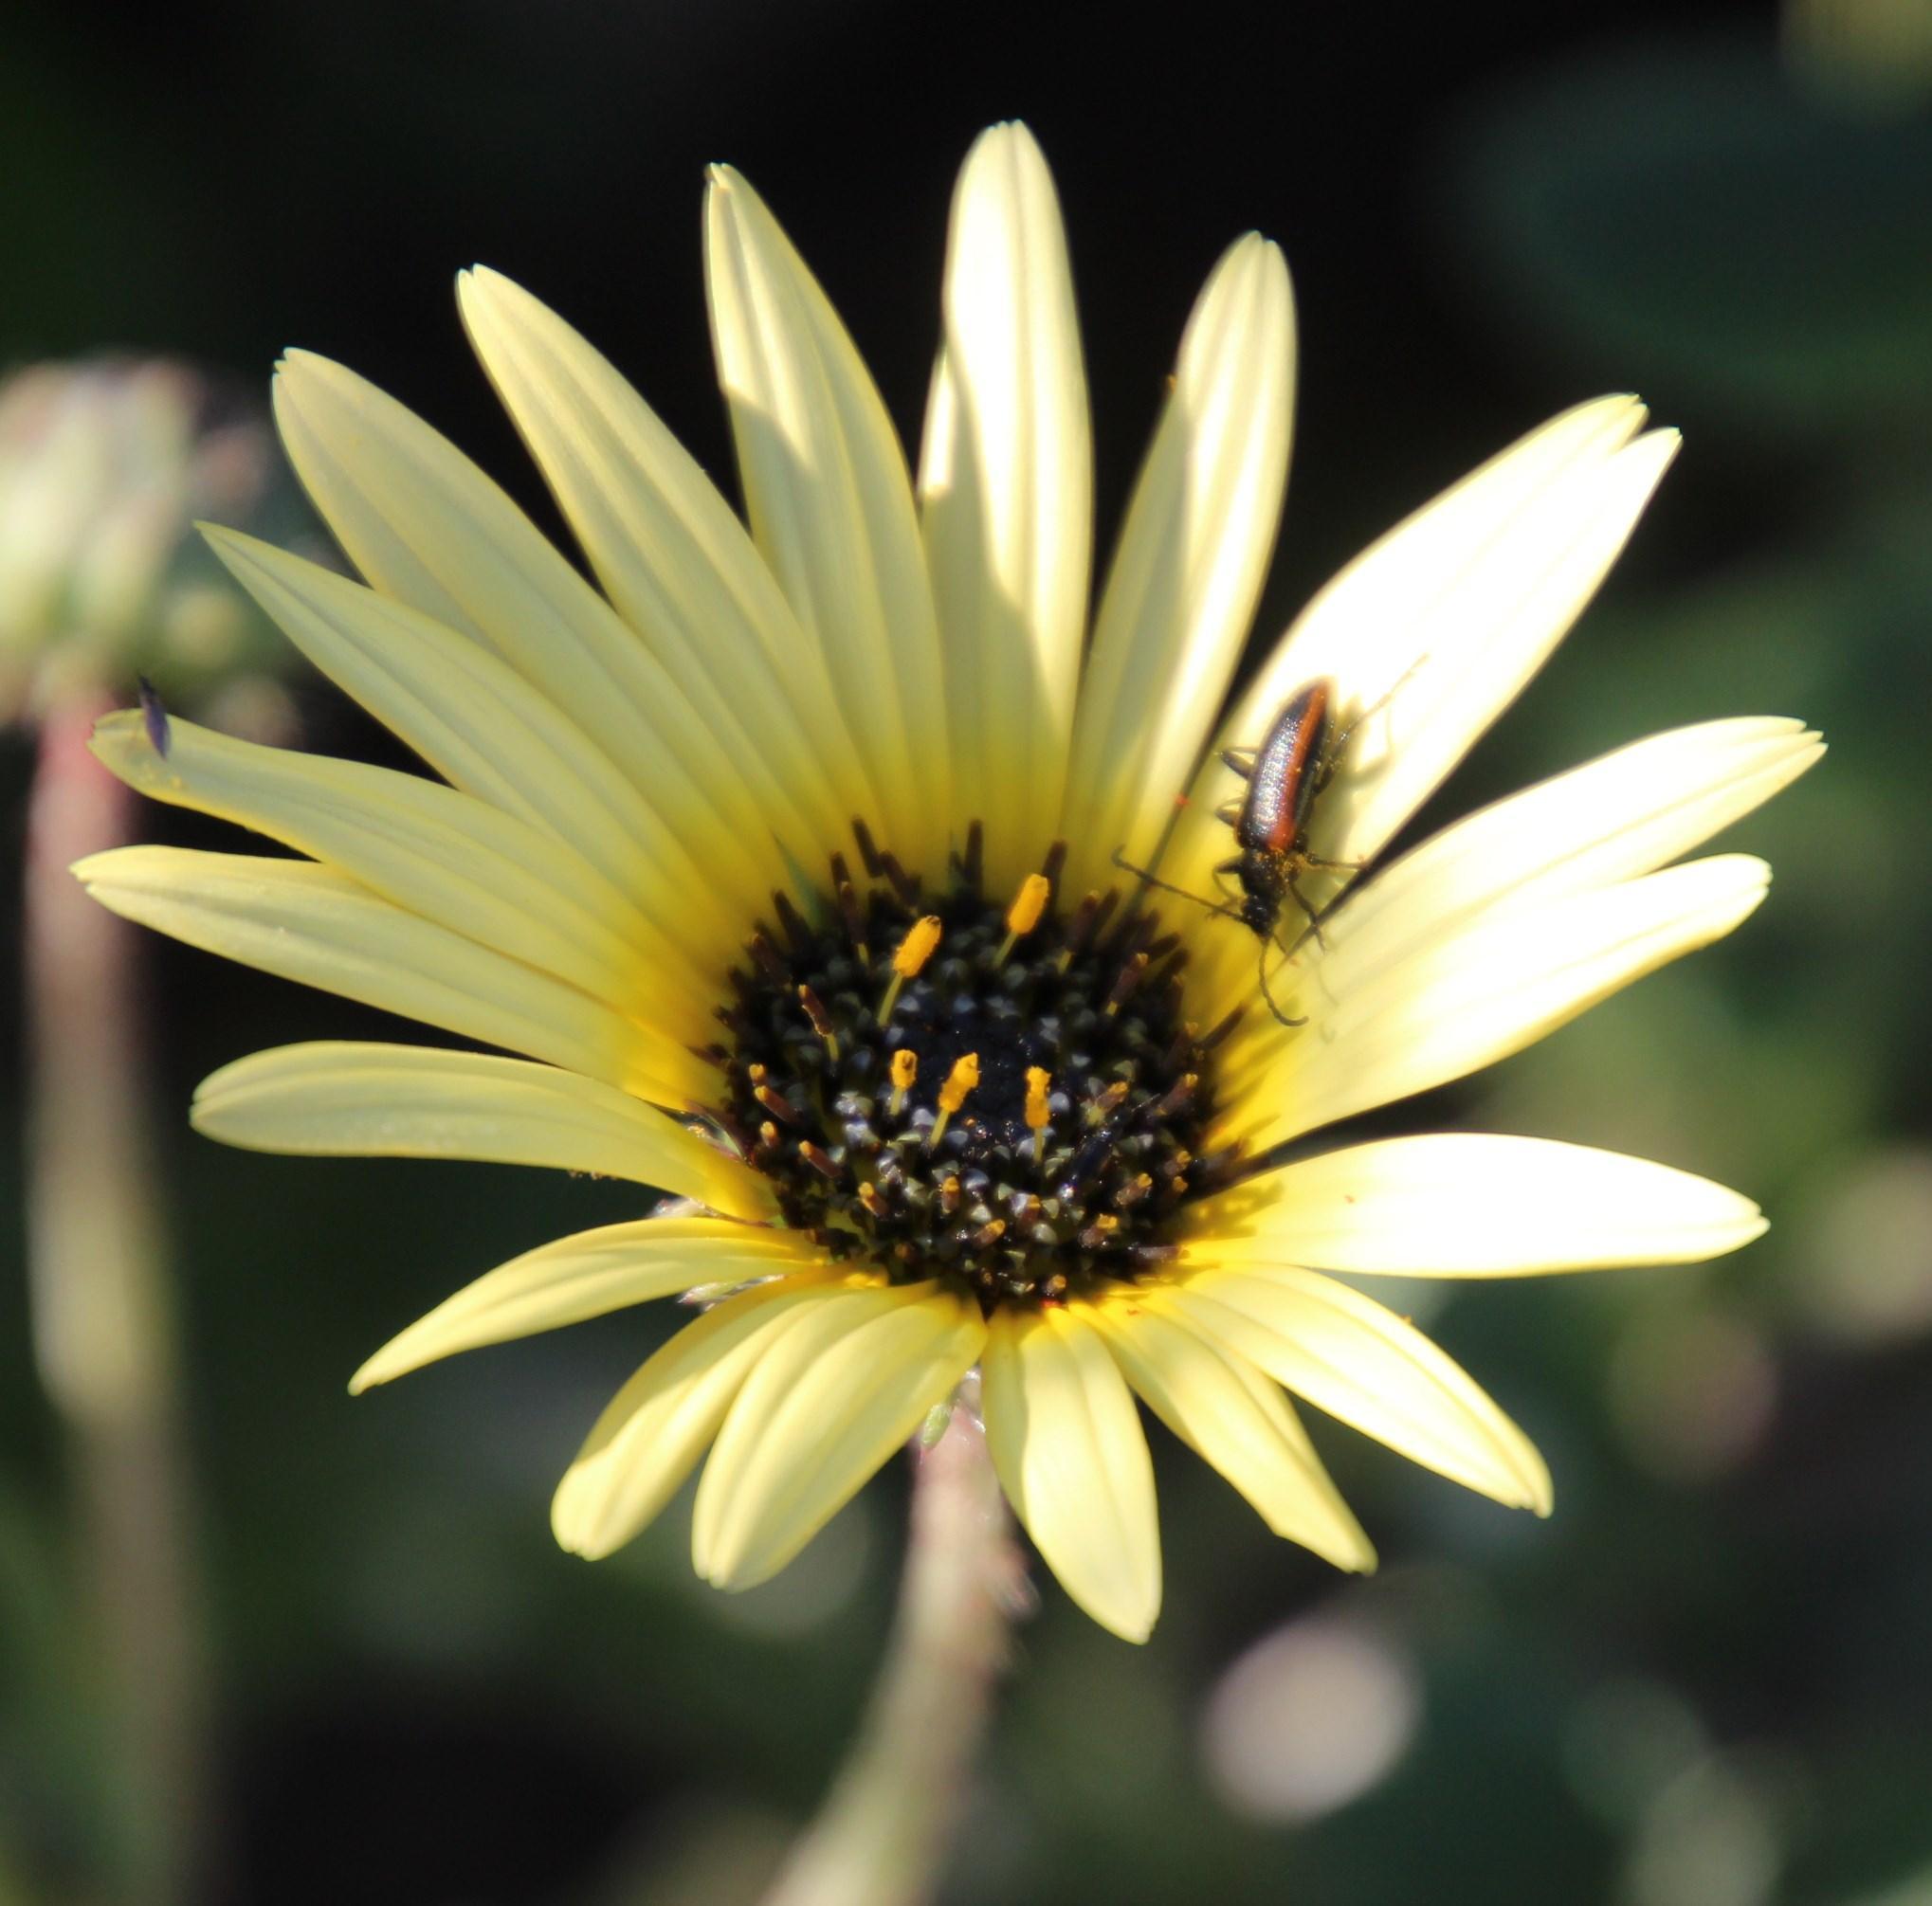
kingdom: Plantae
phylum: Tracheophyta
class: Magnoliopsida
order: Asterales
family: Asteraceae
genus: Arctotheca
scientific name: Arctotheca calendula
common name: Capeweed
